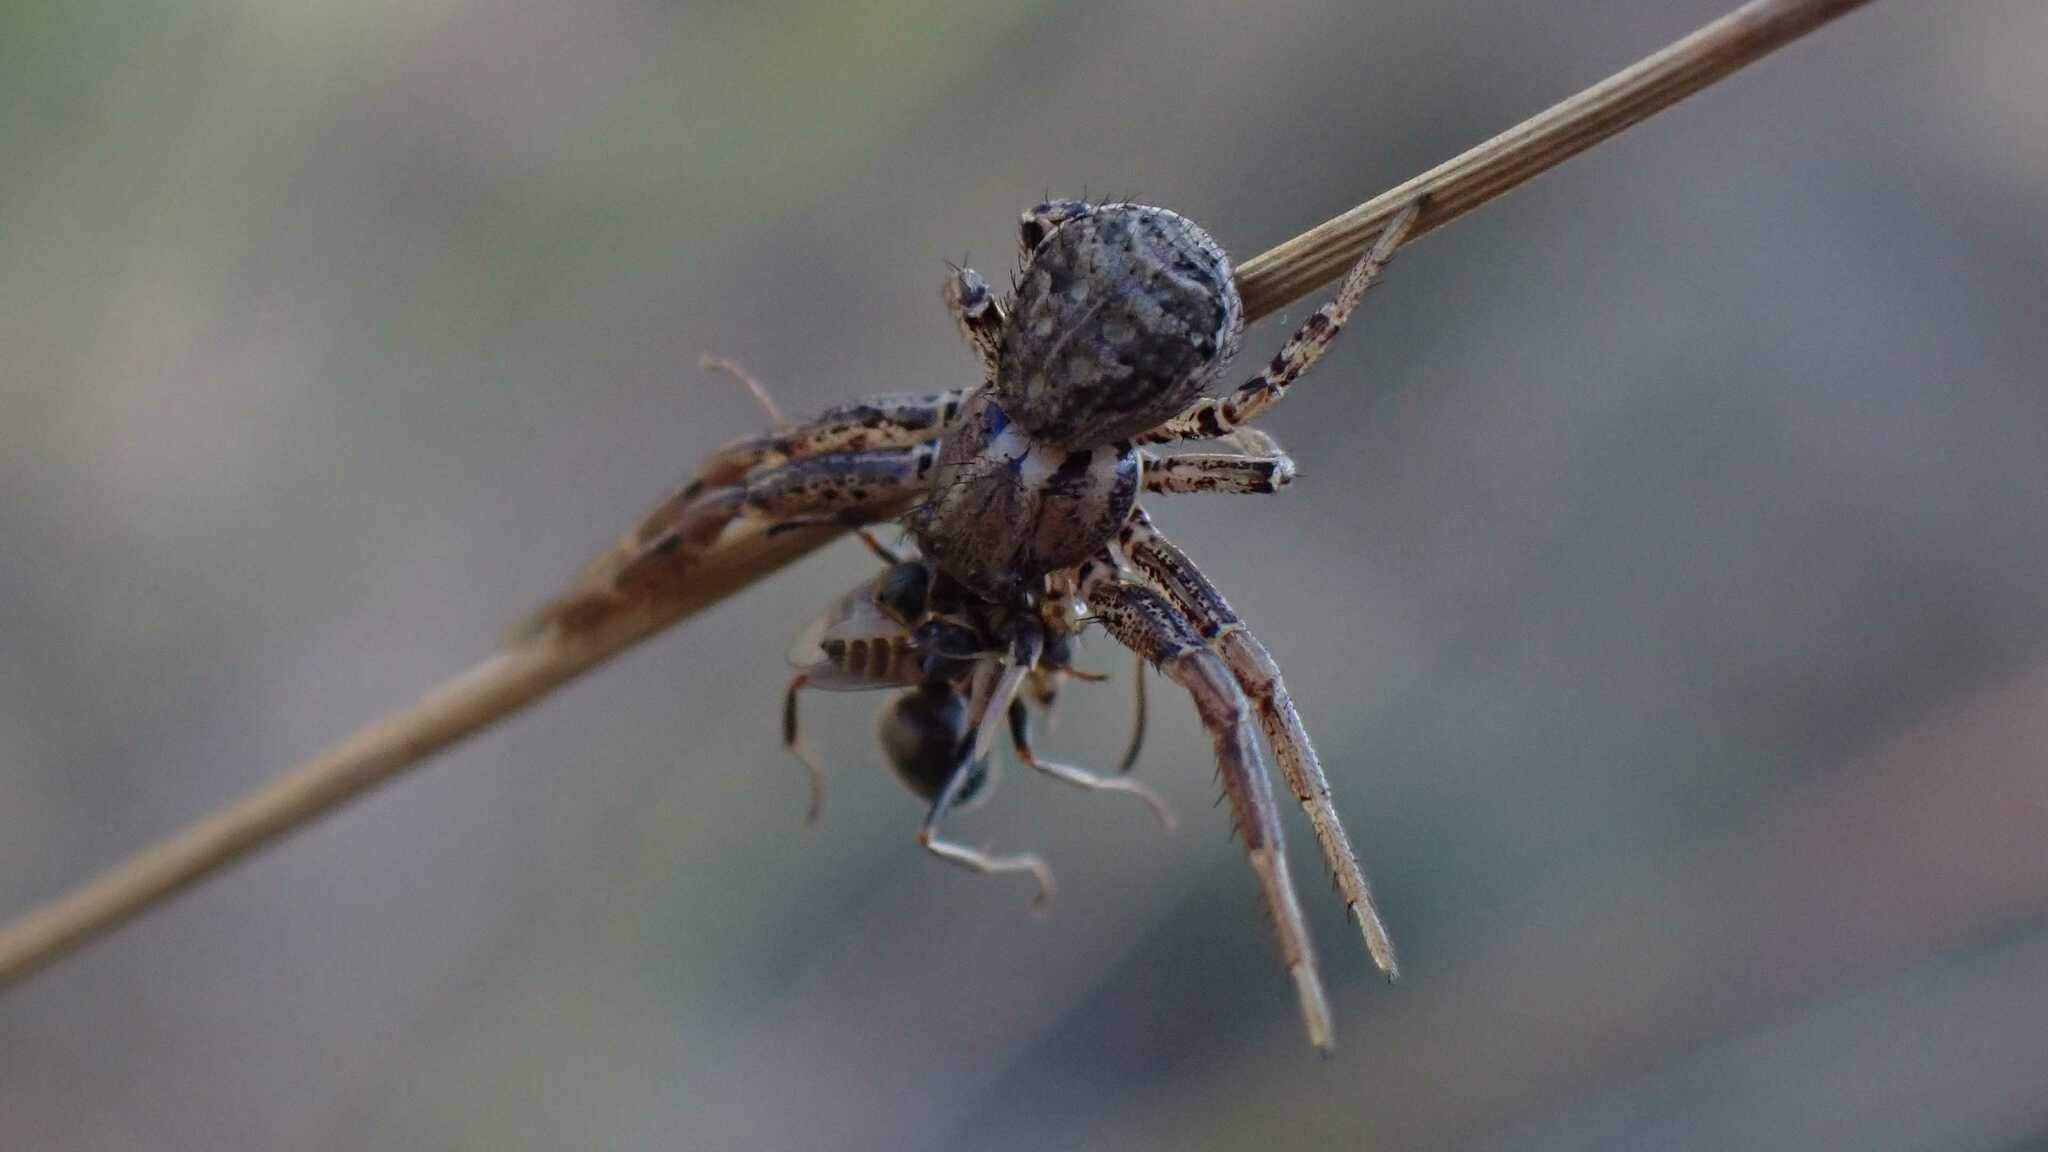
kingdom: Animalia
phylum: Arthropoda
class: Arachnida
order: Araneae
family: Thomisidae
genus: Xysticus
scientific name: Xysticus
